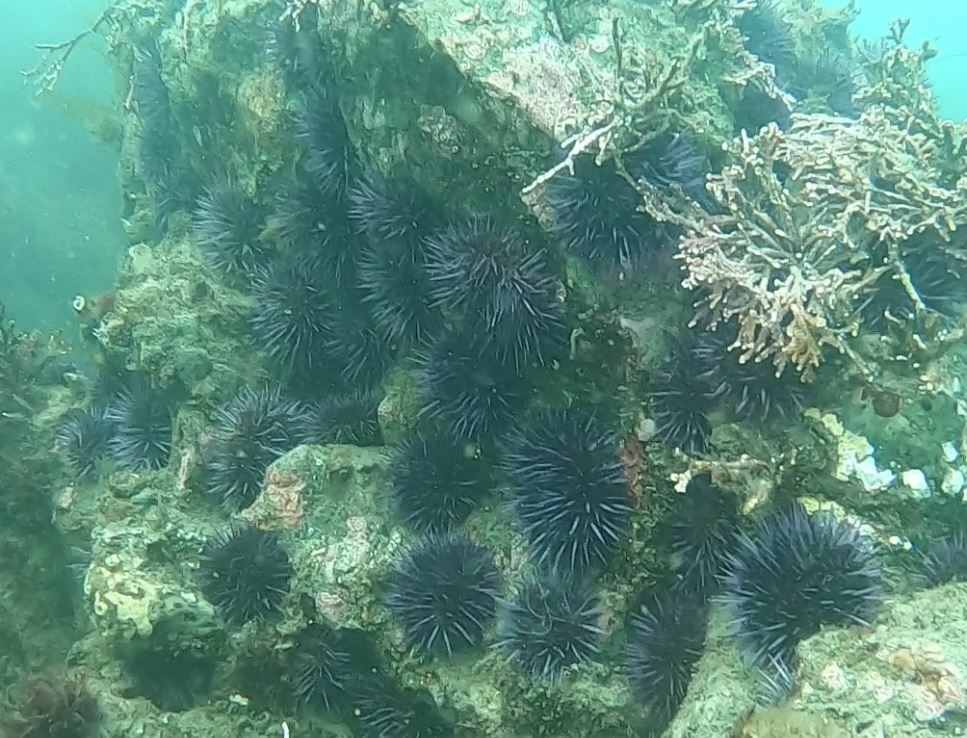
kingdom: Animalia
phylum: Echinodermata
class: Echinoidea
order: Camarodonta
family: Strongylocentrotidae
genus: Strongylocentrotus
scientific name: Strongylocentrotus purpuratus
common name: Purple sea urchin
